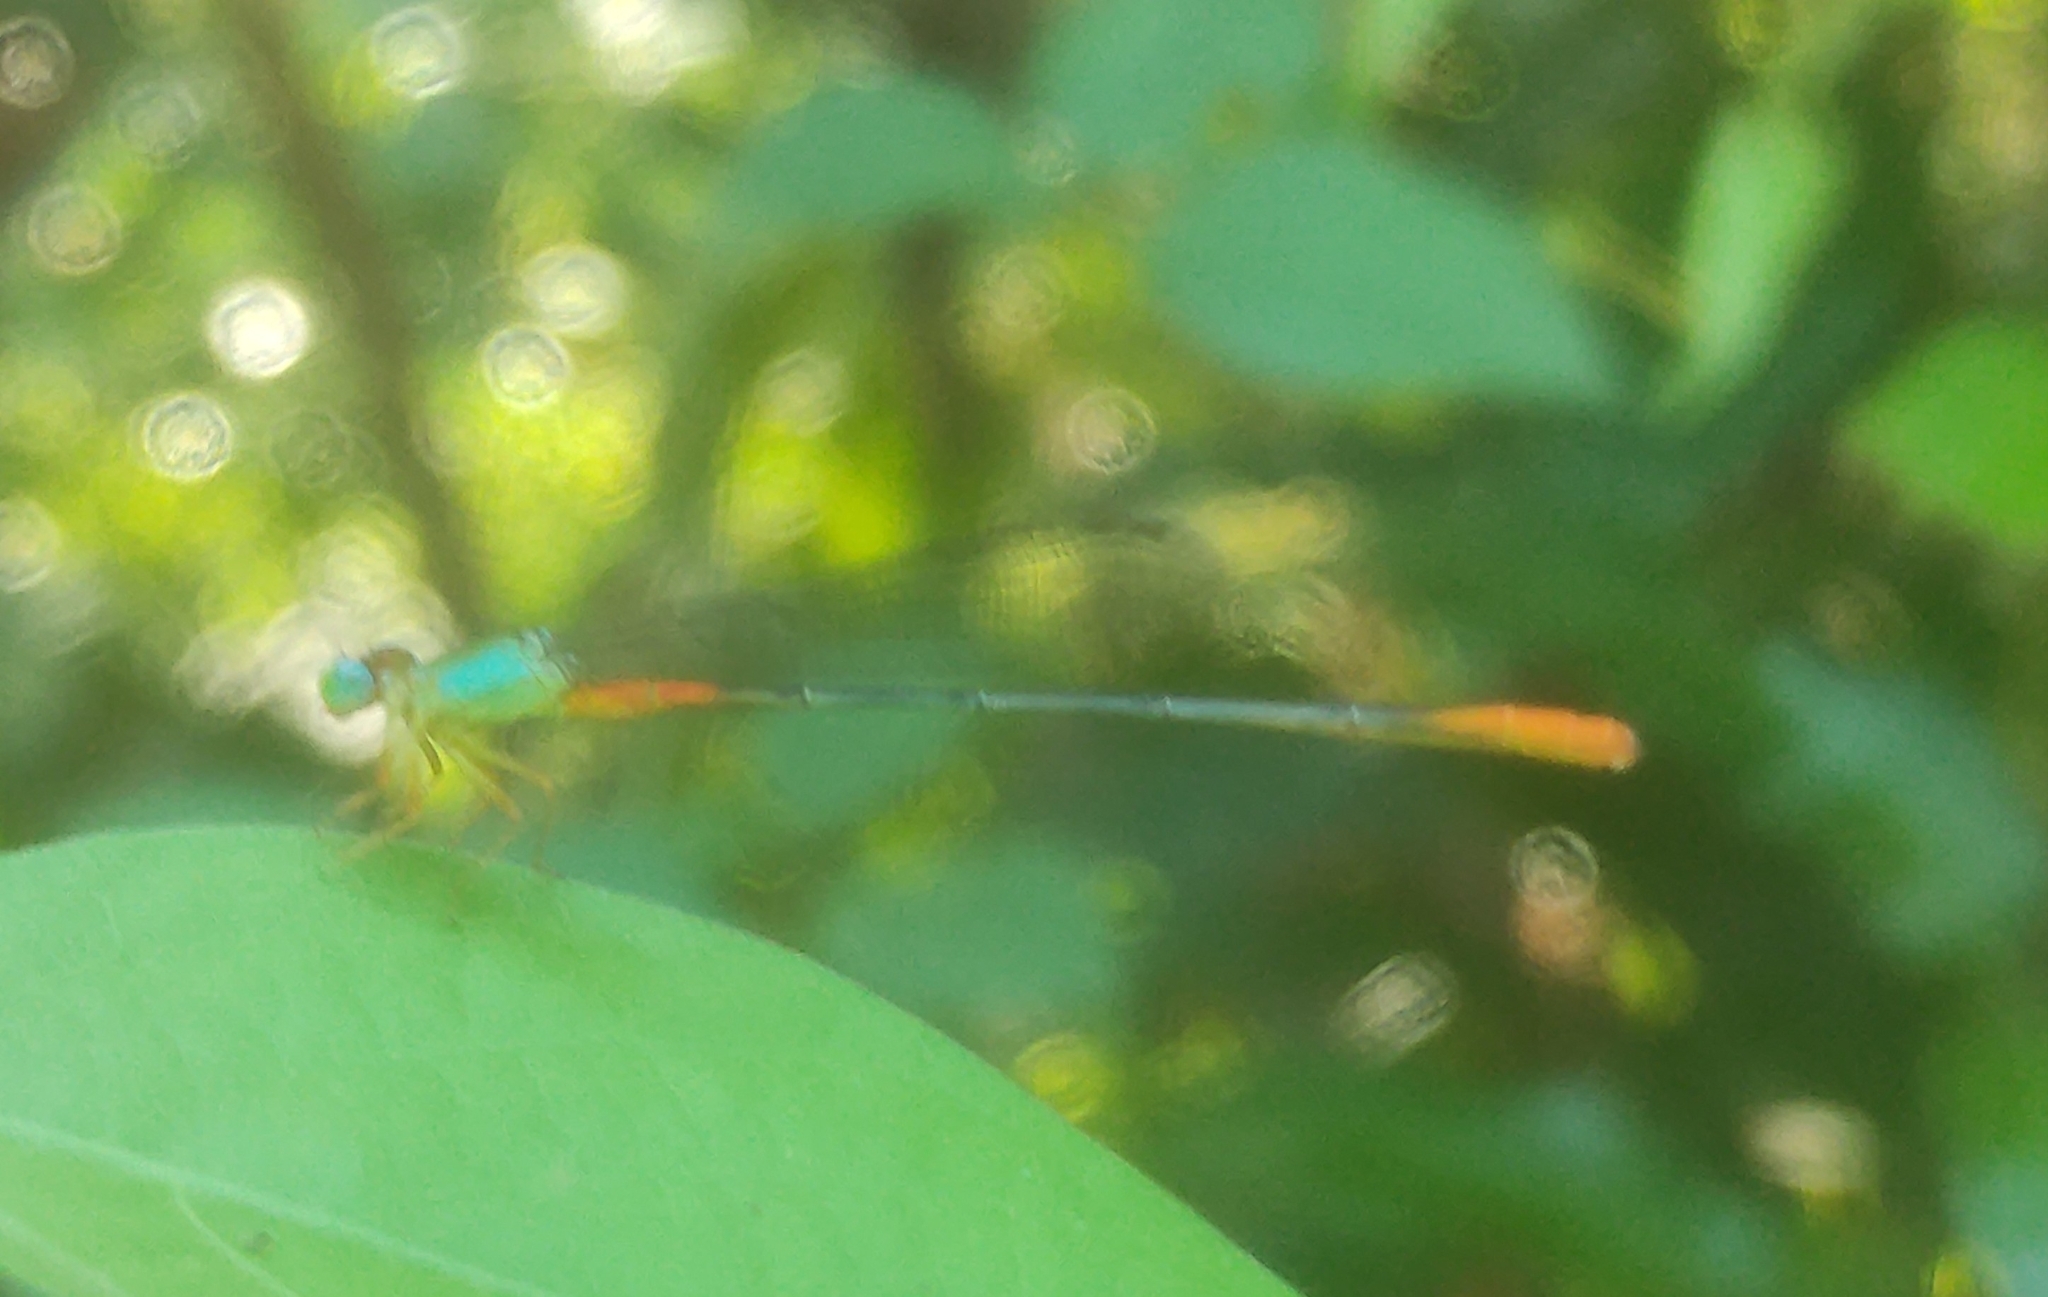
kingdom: Animalia
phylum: Arthropoda
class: Insecta
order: Odonata
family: Coenagrionidae
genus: Ceriagrion
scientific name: Ceriagrion cerinorubellum
